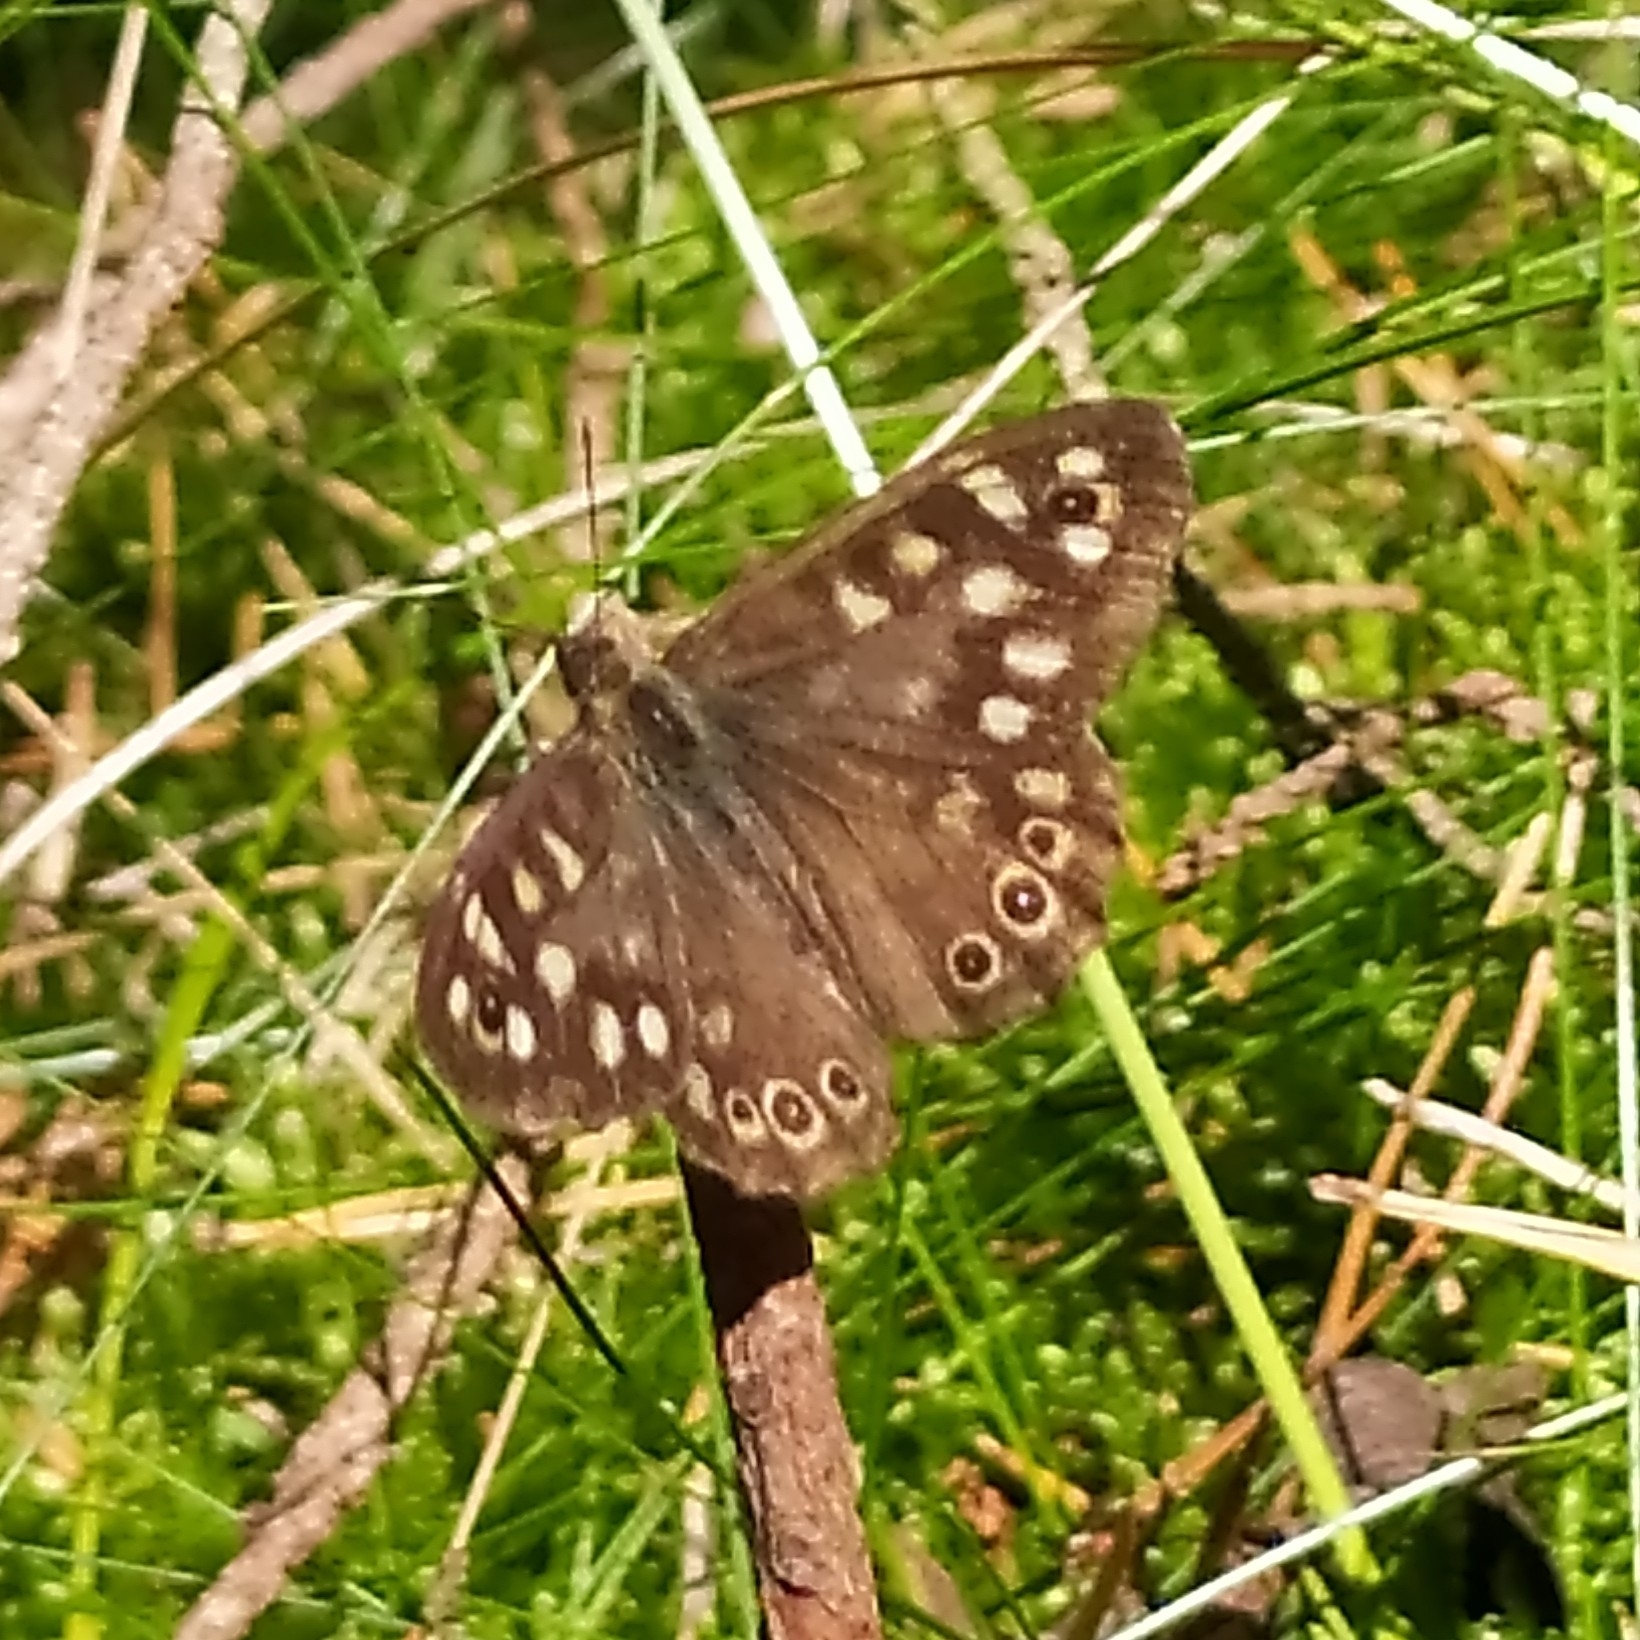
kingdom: Animalia
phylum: Arthropoda
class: Insecta
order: Lepidoptera
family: Nymphalidae
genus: Pararge
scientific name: Pararge aegeria
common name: Speckled wood
